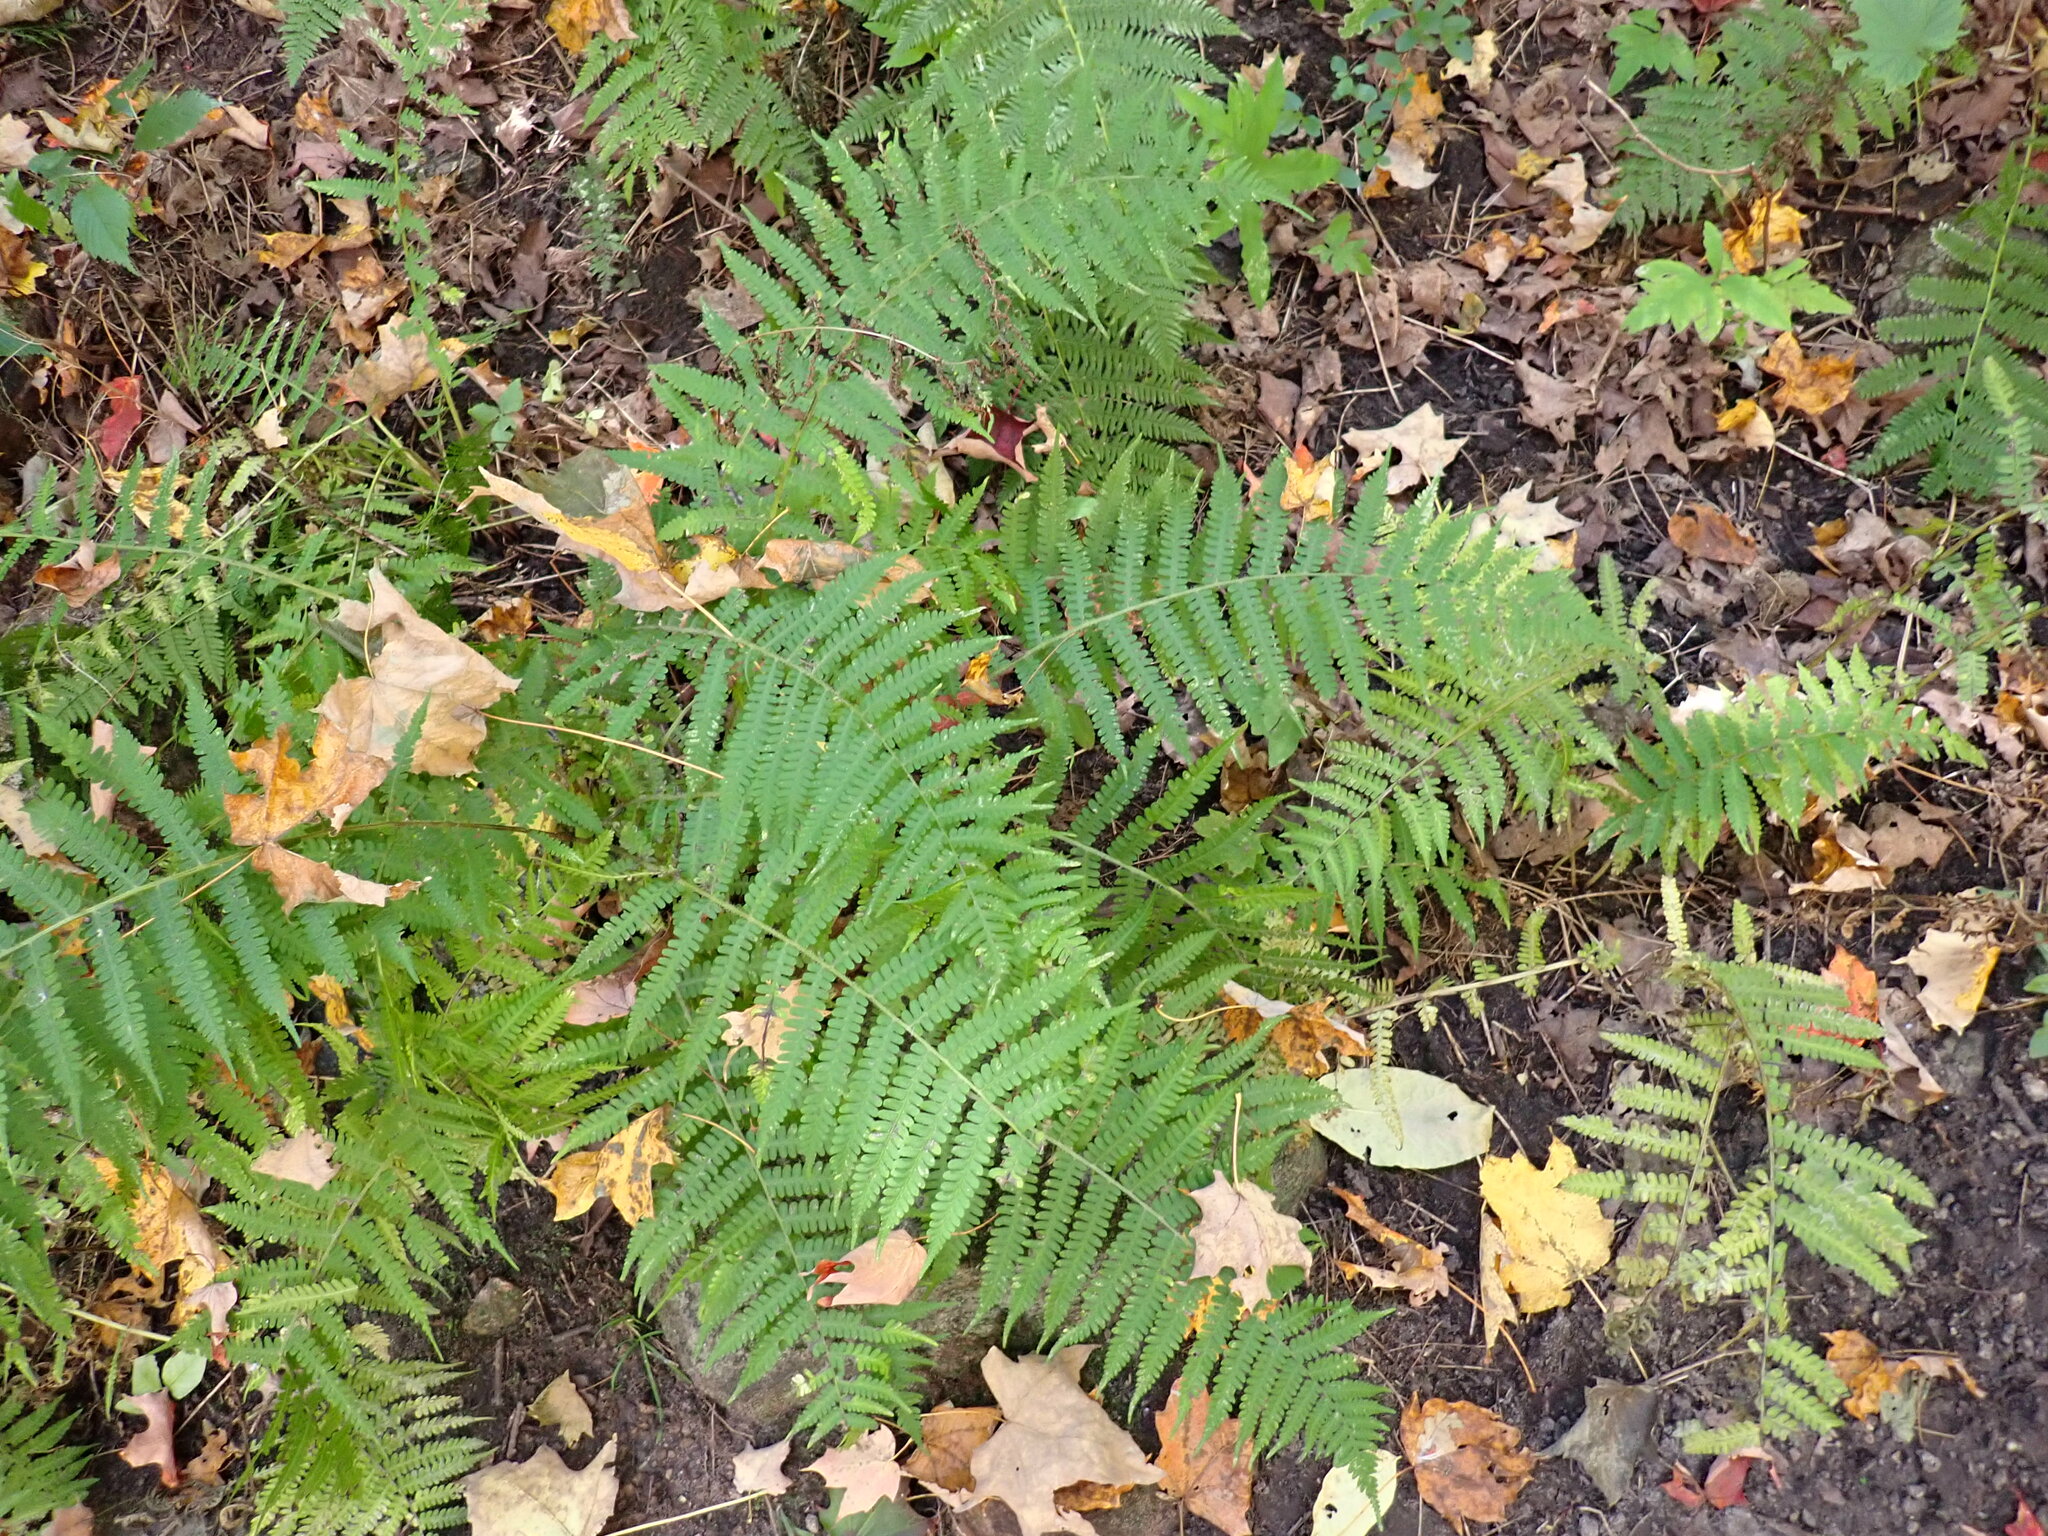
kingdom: Plantae
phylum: Tracheophyta
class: Polypodiopsida
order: Polypodiales
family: Athyriaceae
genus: Deparia
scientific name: Deparia acrostichoides
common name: Silver false spleenwort
